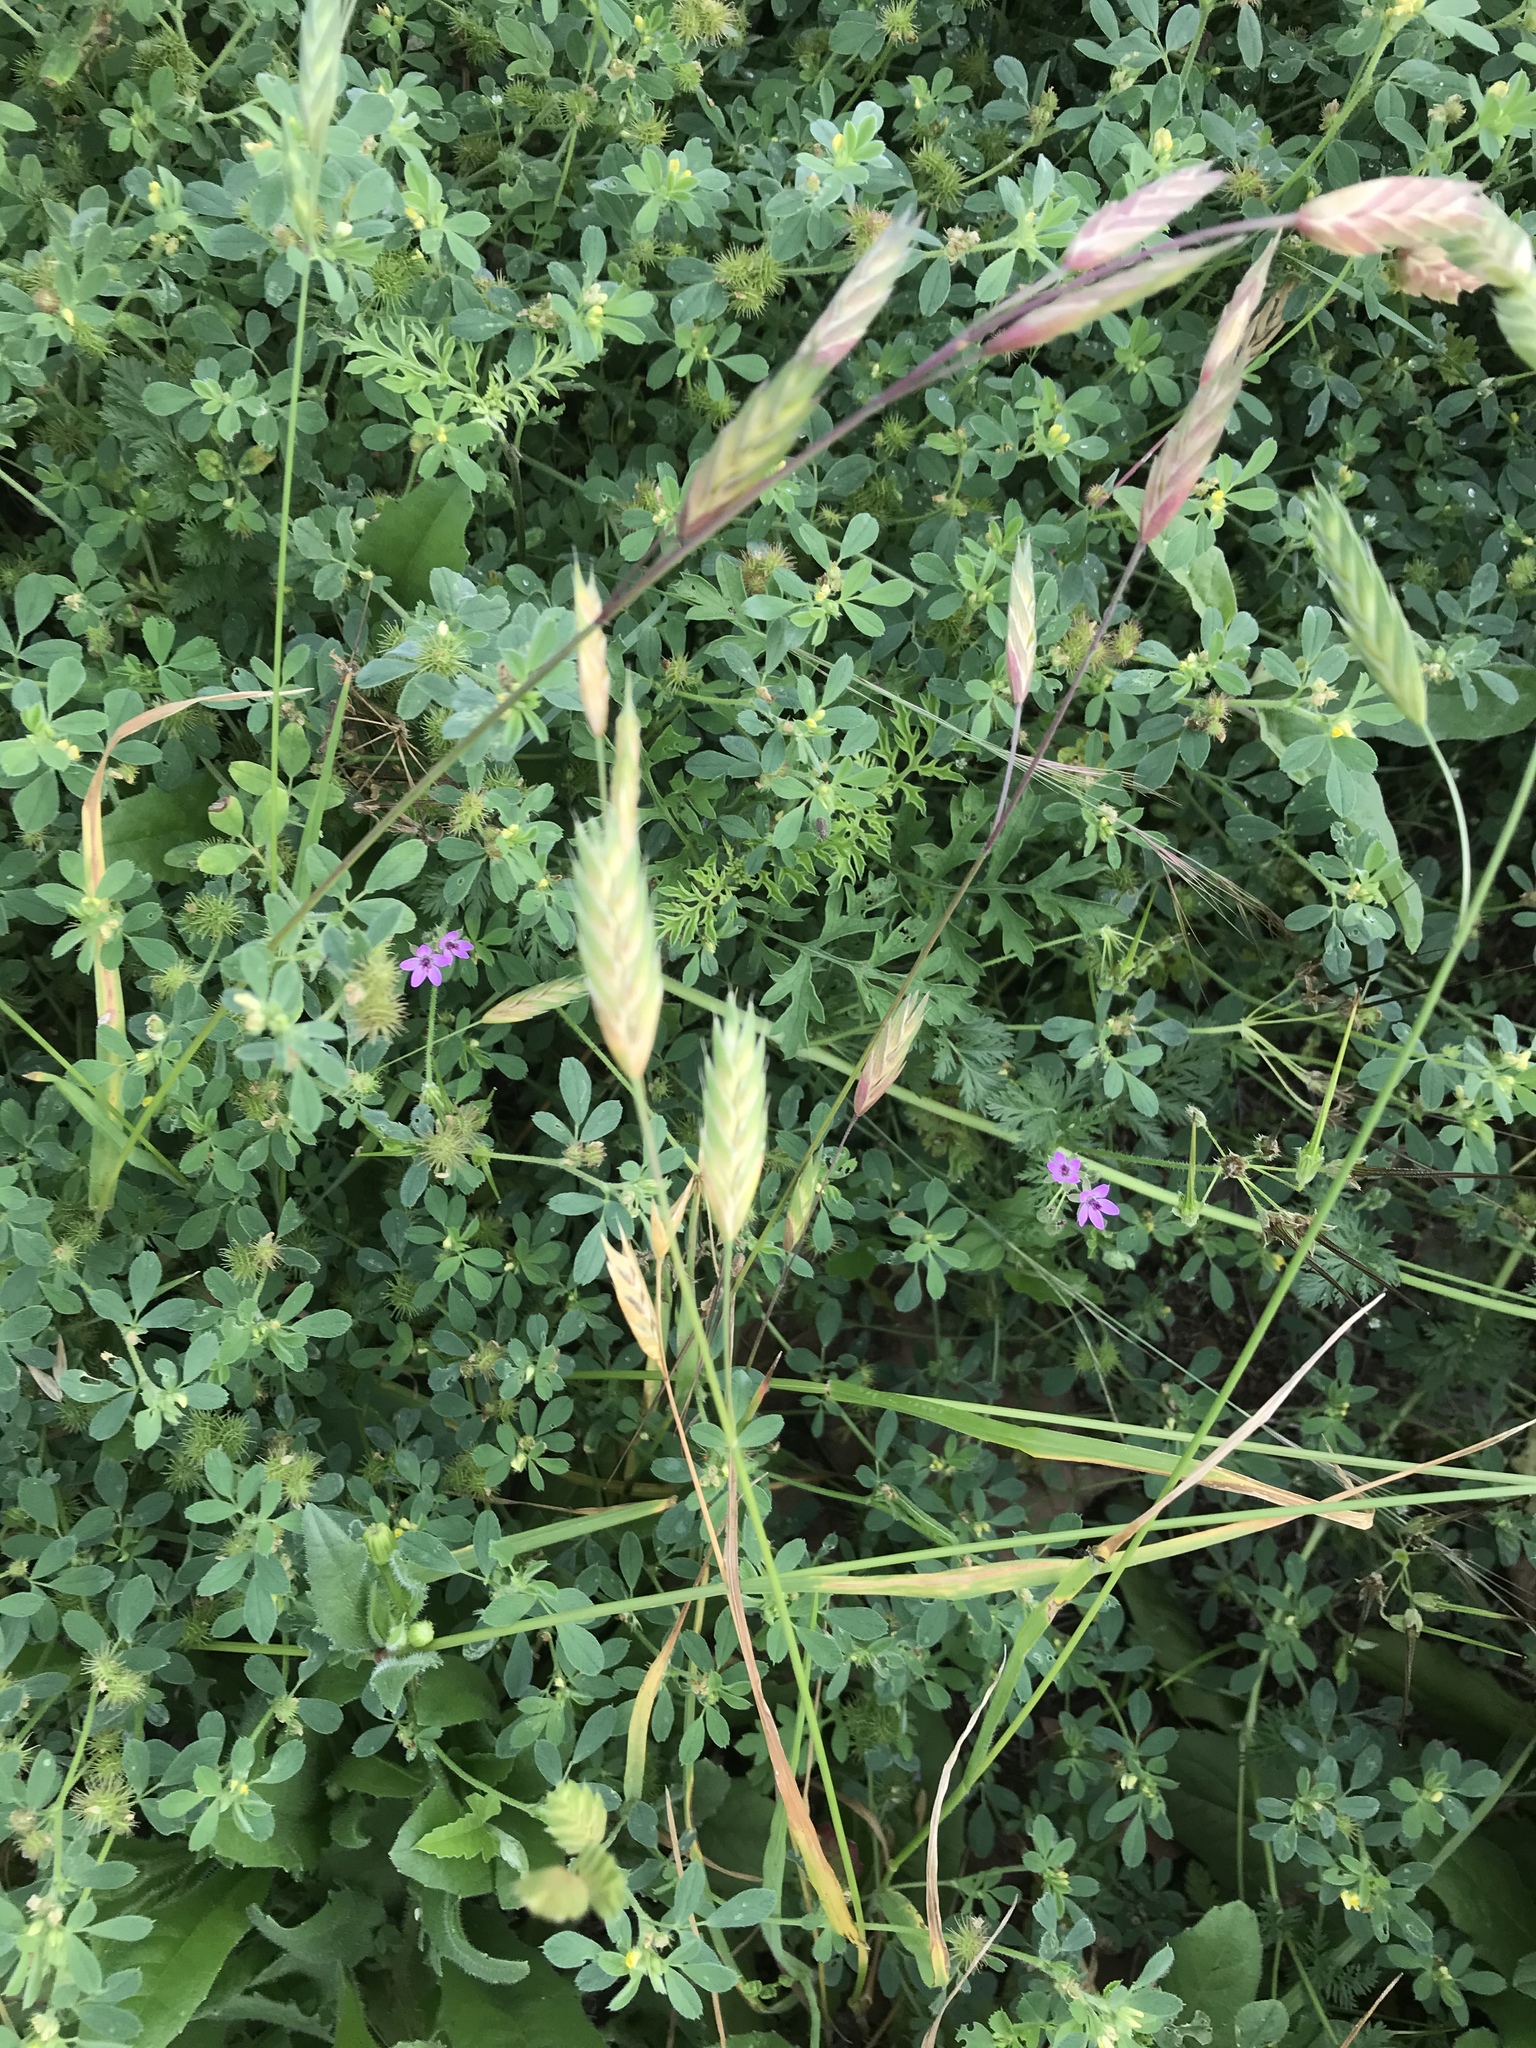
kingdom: Plantae
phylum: Tracheophyta
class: Liliopsida
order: Poales
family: Poaceae
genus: Bromus
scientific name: Bromus catharticus
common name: Rescuegrass
